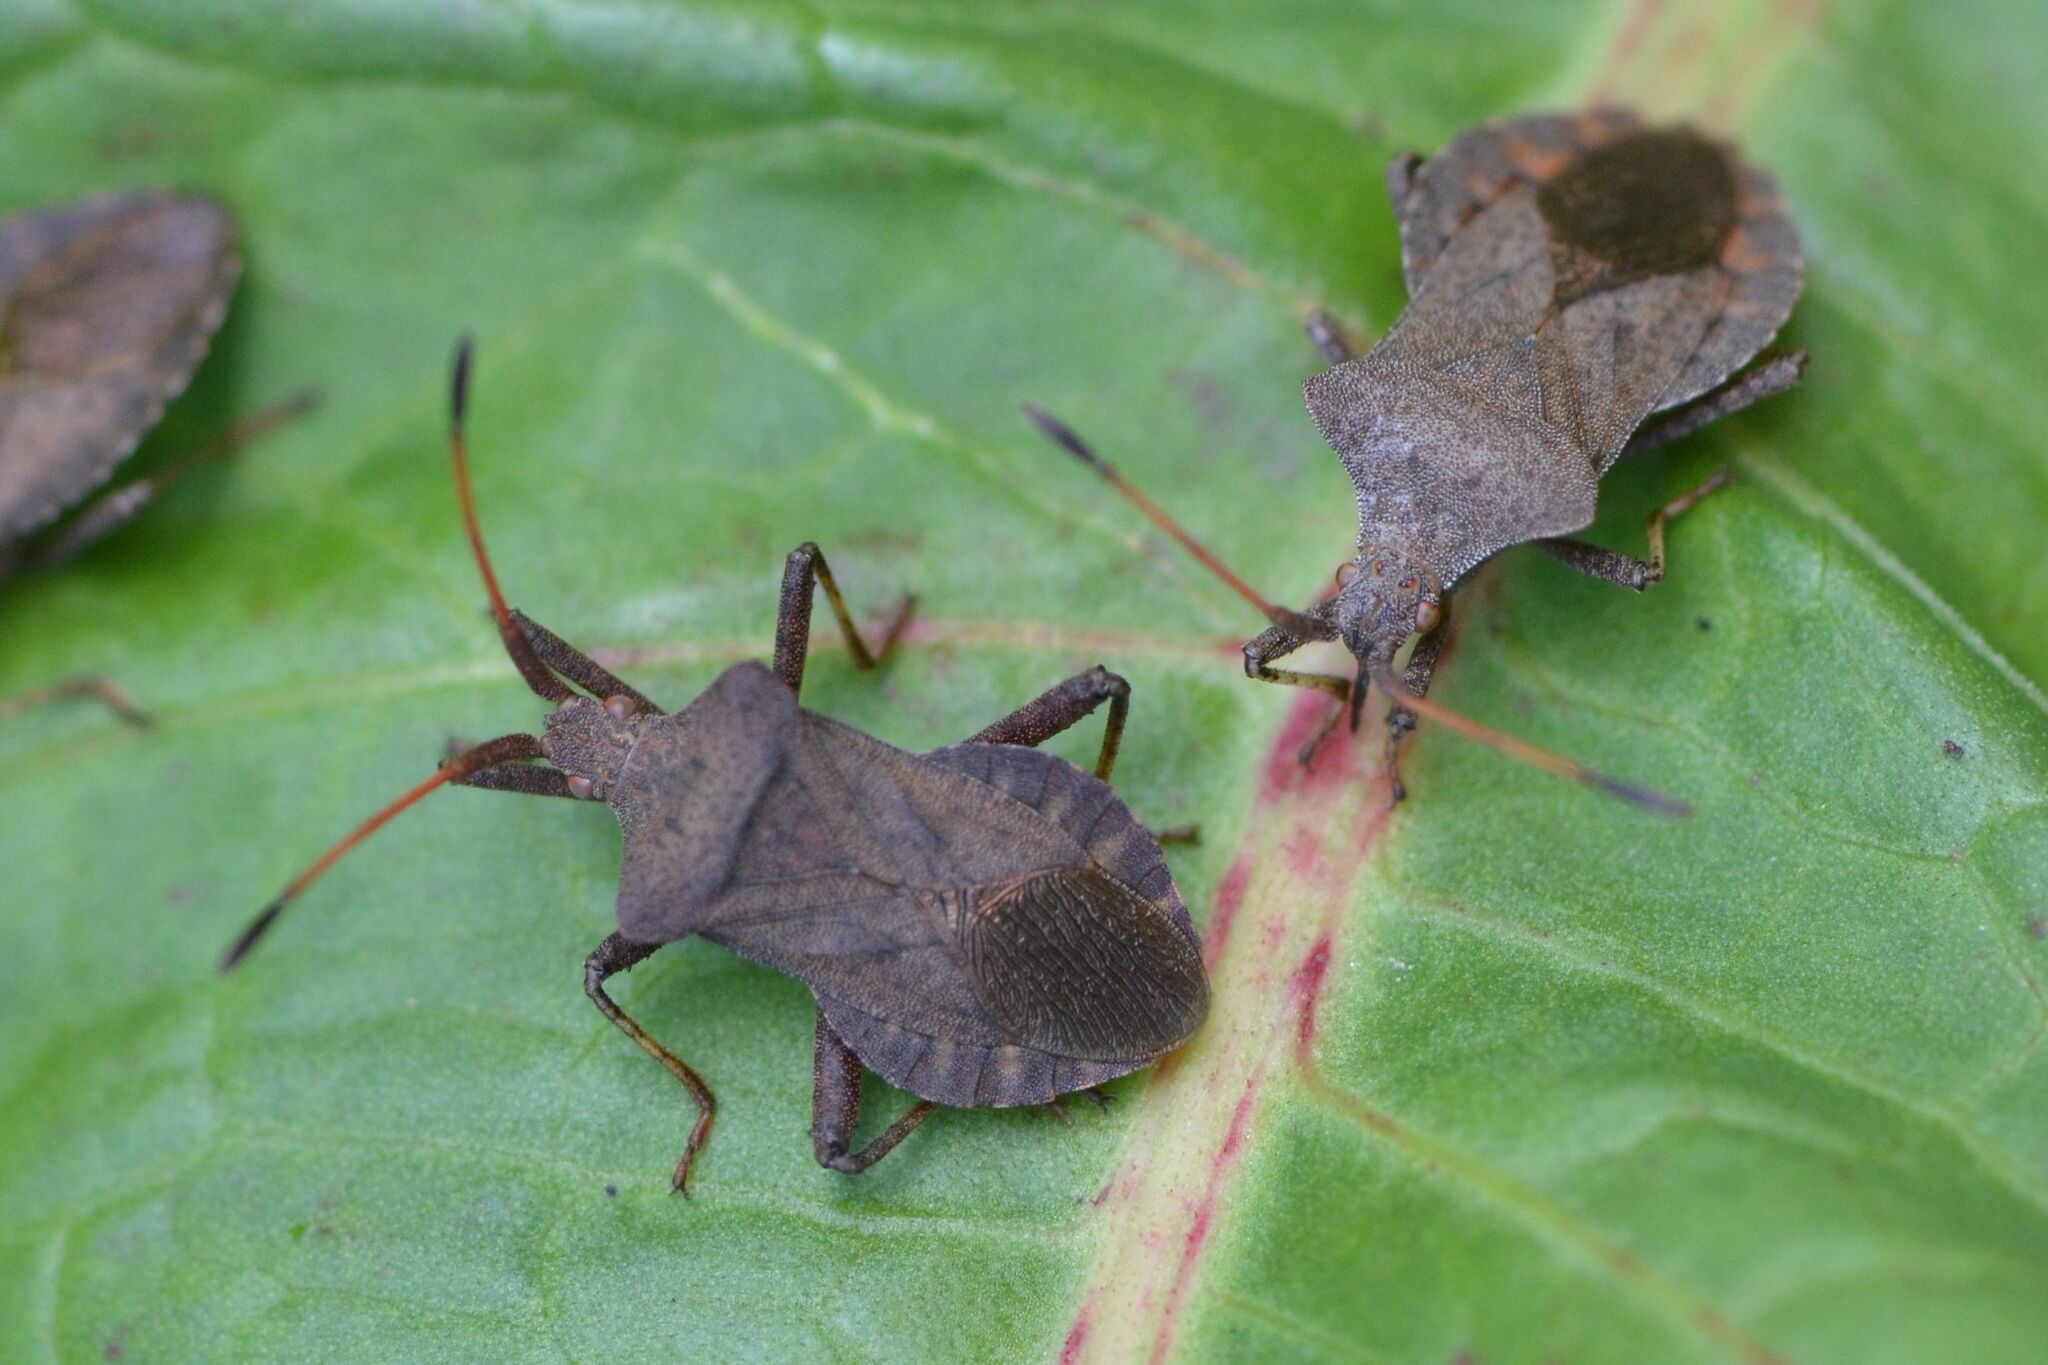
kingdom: Animalia
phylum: Arthropoda
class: Insecta
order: Hemiptera
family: Coreidae
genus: Coreus
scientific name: Coreus marginatus
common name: Dock bug
